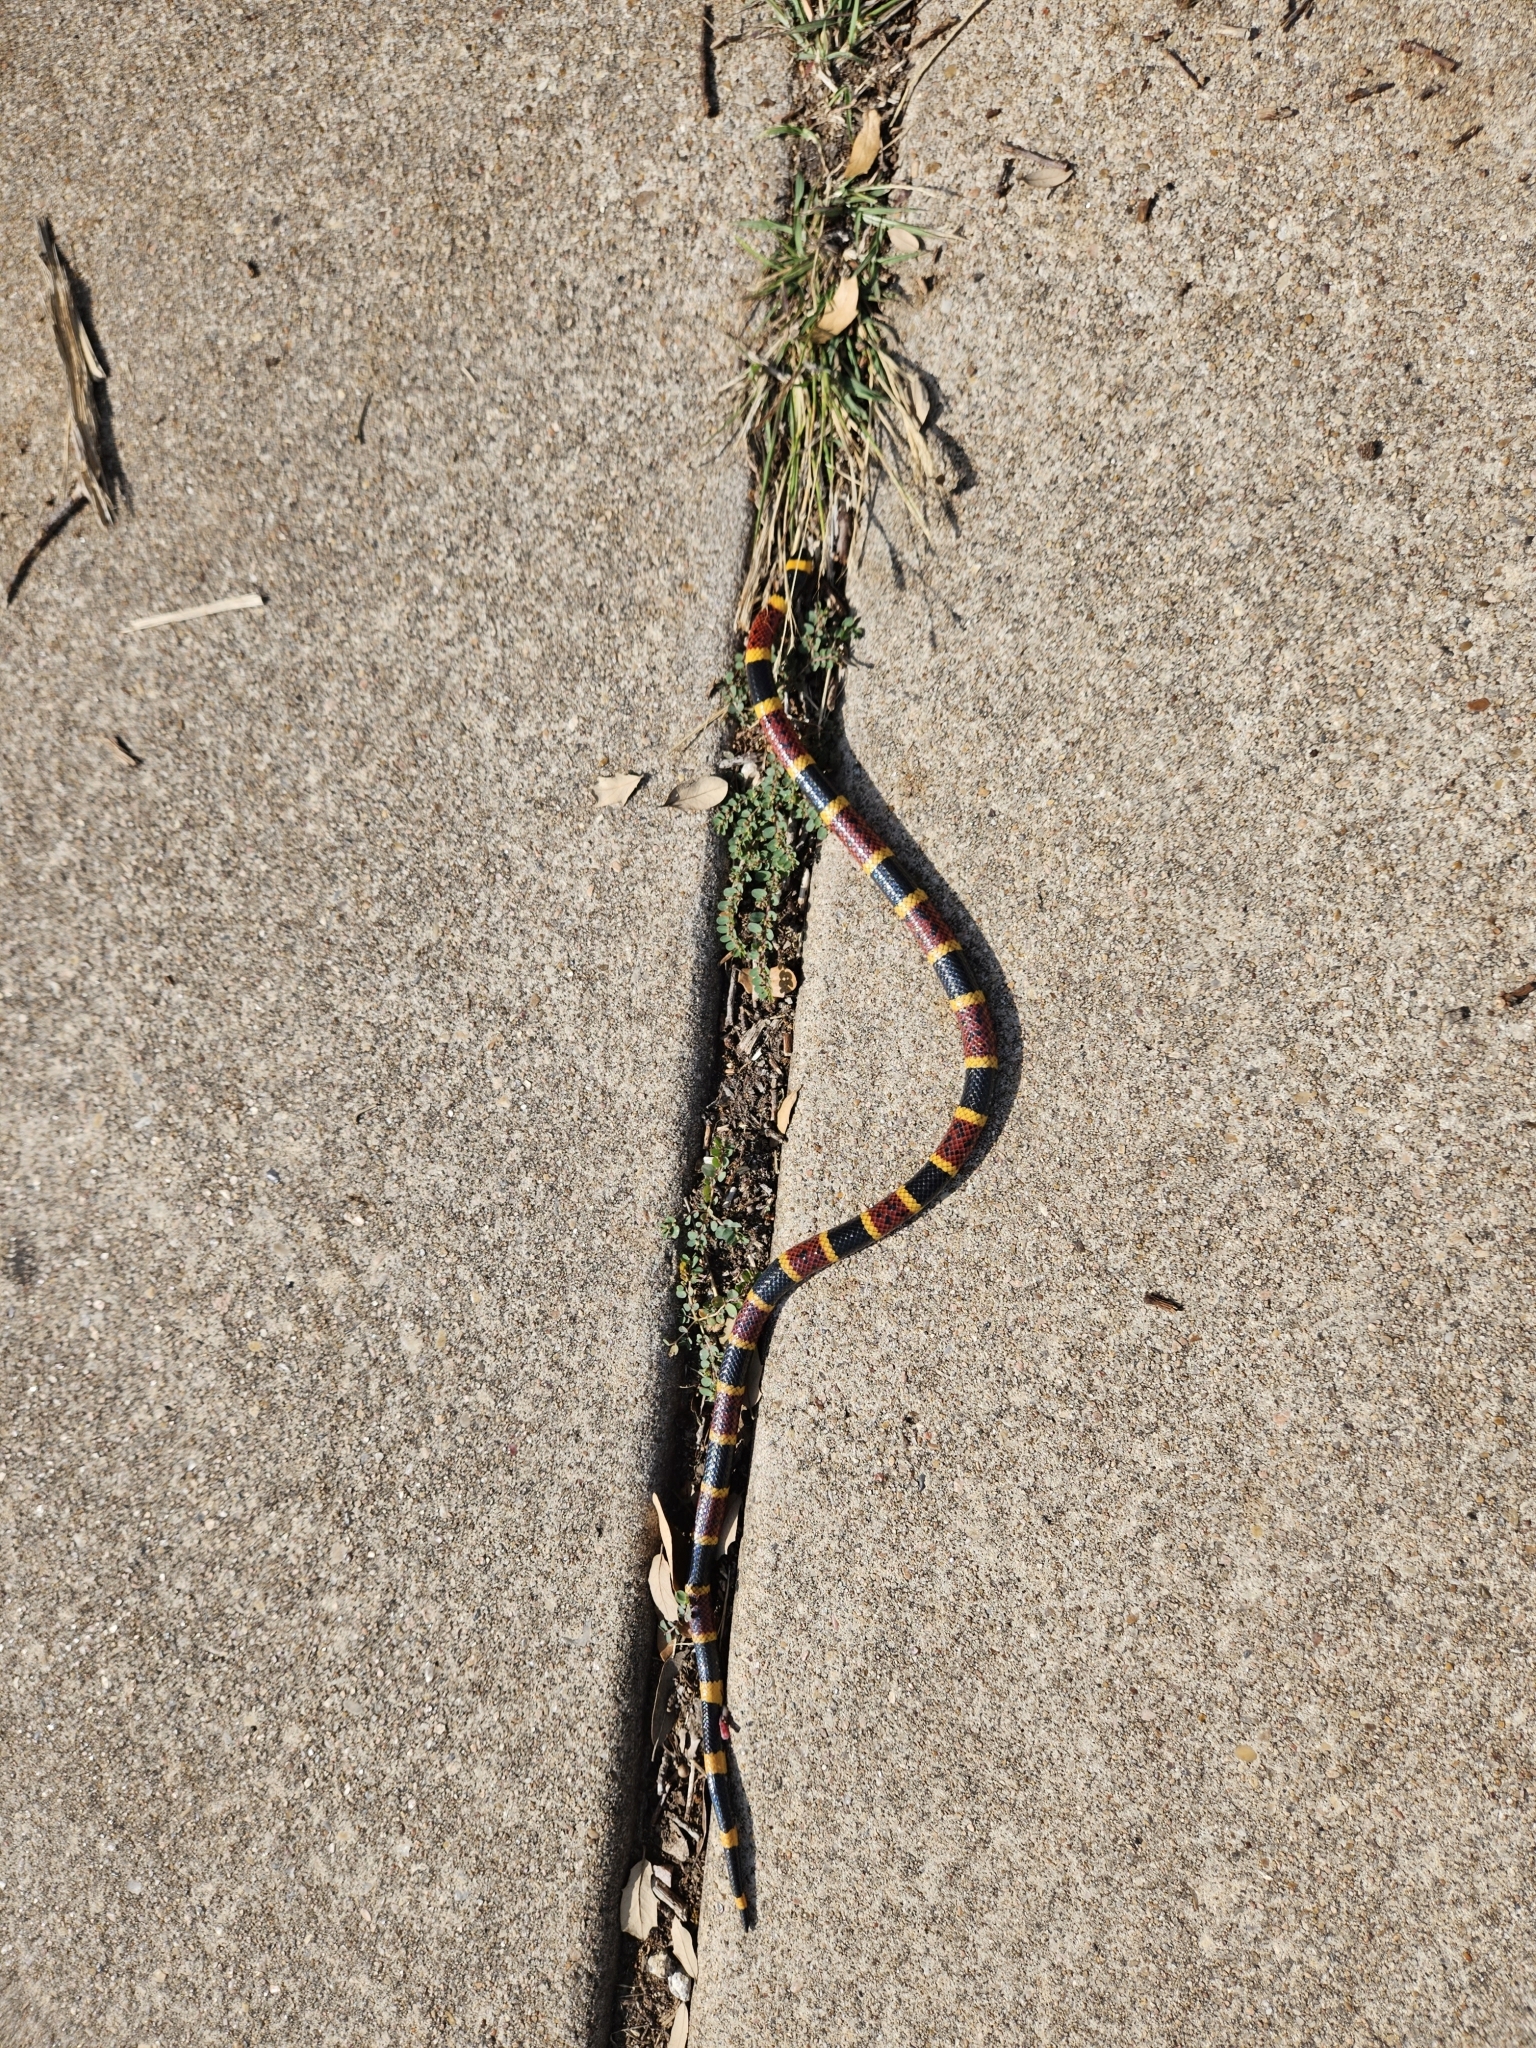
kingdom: Animalia
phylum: Chordata
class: Squamata
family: Elapidae
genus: Micrurus
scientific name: Micrurus tener
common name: Texas coral snake
